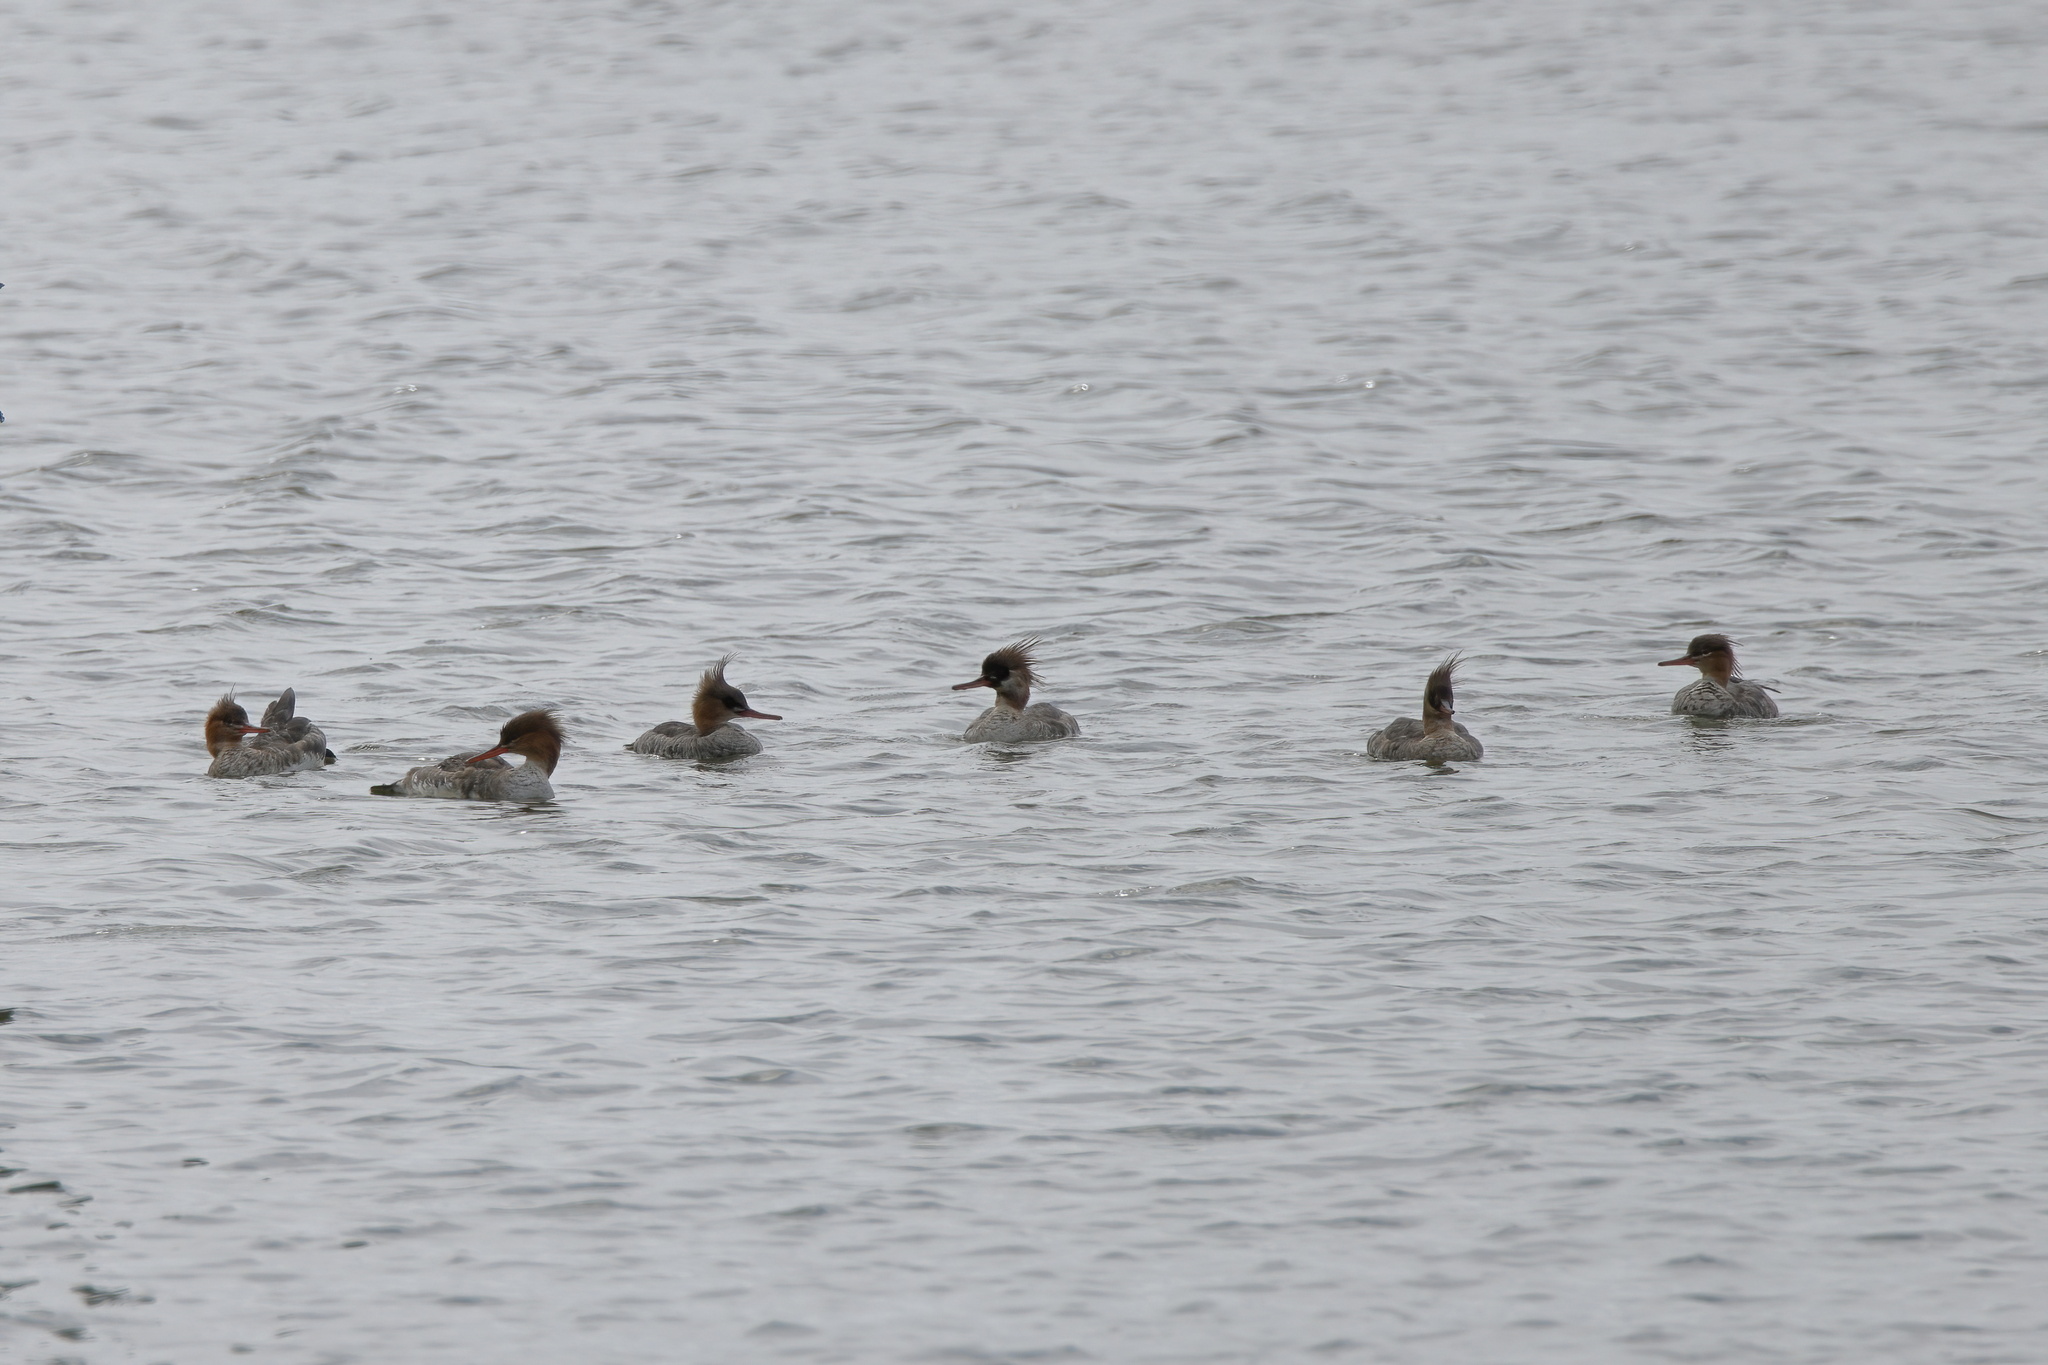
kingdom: Animalia
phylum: Chordata
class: Aves
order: Anseriformes
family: Anatidae
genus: Mergus
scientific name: Mergus serrator
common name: Red-breasted merganser
